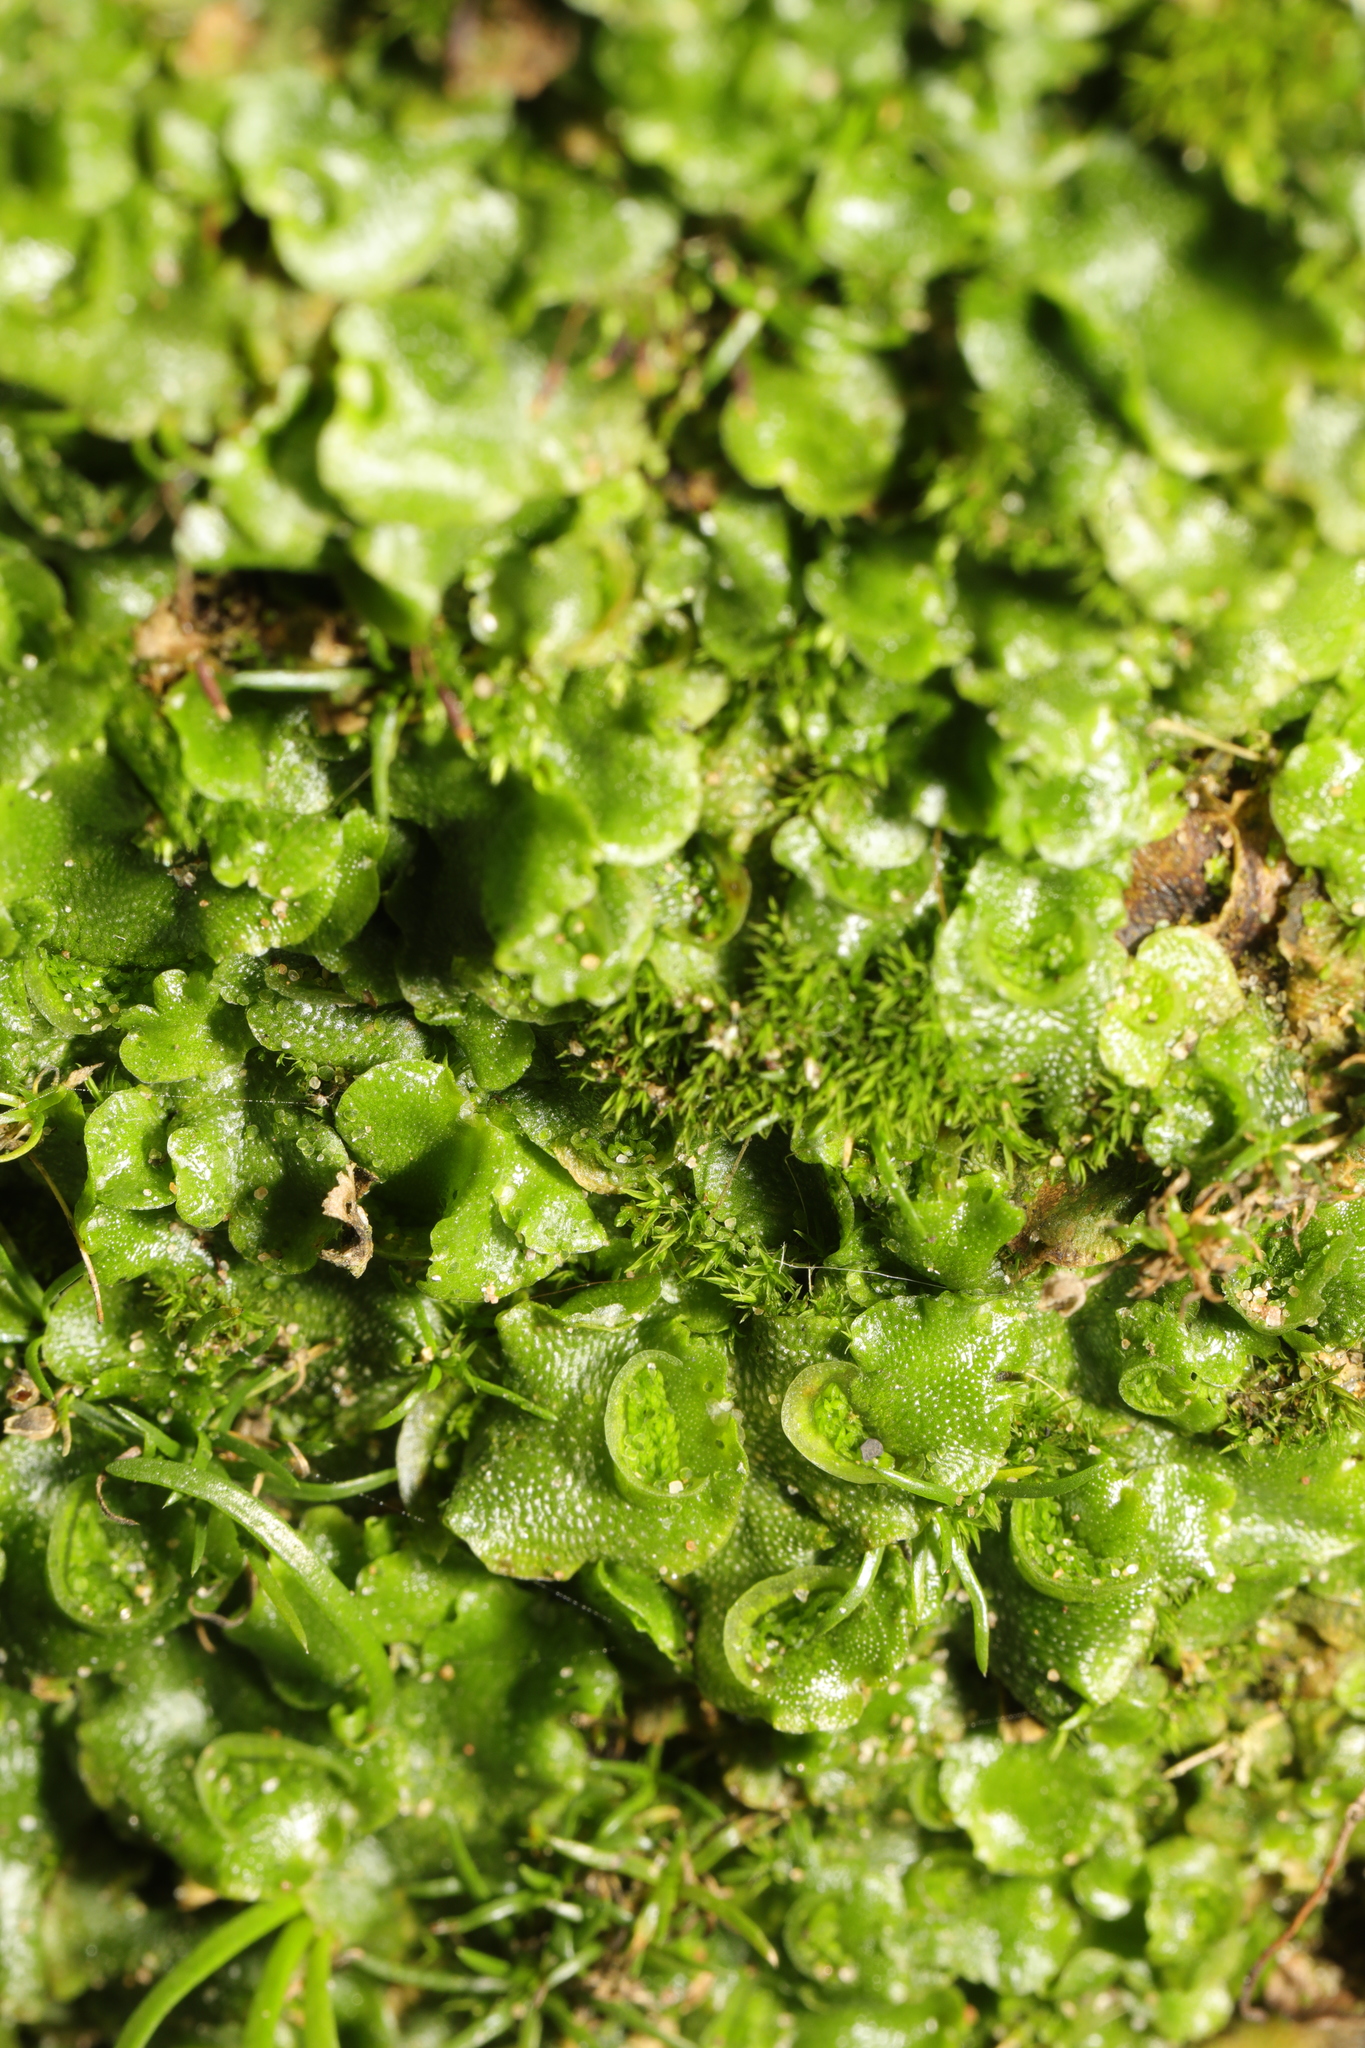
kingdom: Plantae
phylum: Marchantiophyta
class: Marchantiopsida
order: Lunulariales
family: Lunulariaceae
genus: Lunularia
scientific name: Lunularia cruciata
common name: Crescent-cup liverwort
